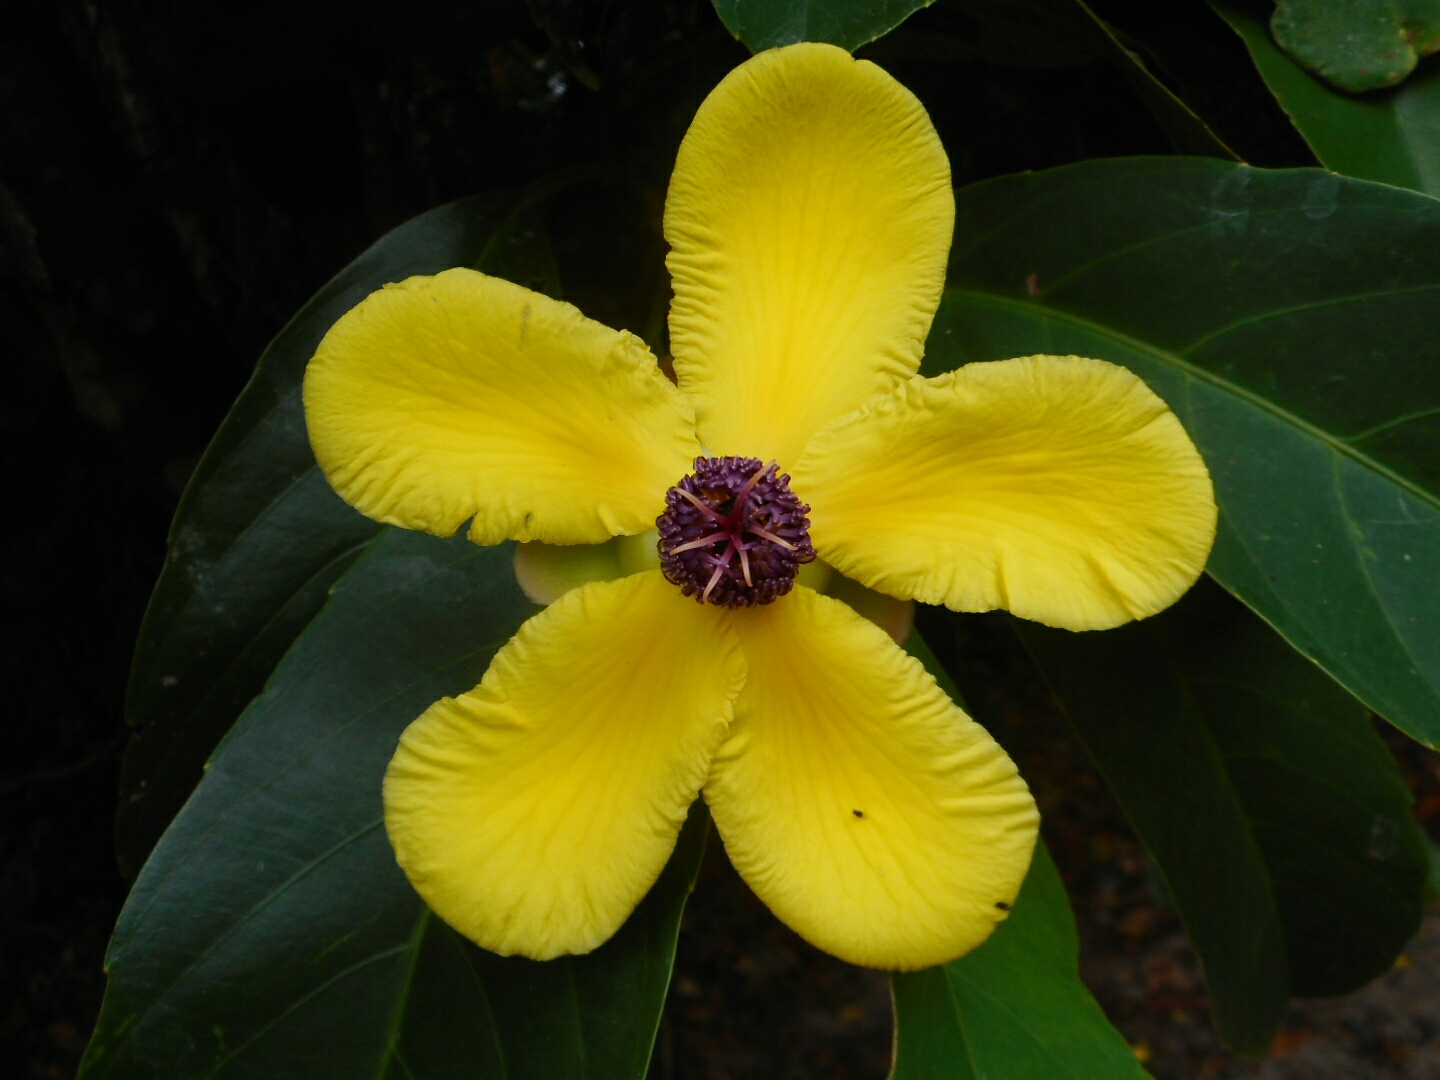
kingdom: Plantae
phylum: Tracheophyta
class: Magnoliopsida
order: Dilleniales
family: Dilleniaceae
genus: Dillenia
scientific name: Dillenia excelsa
